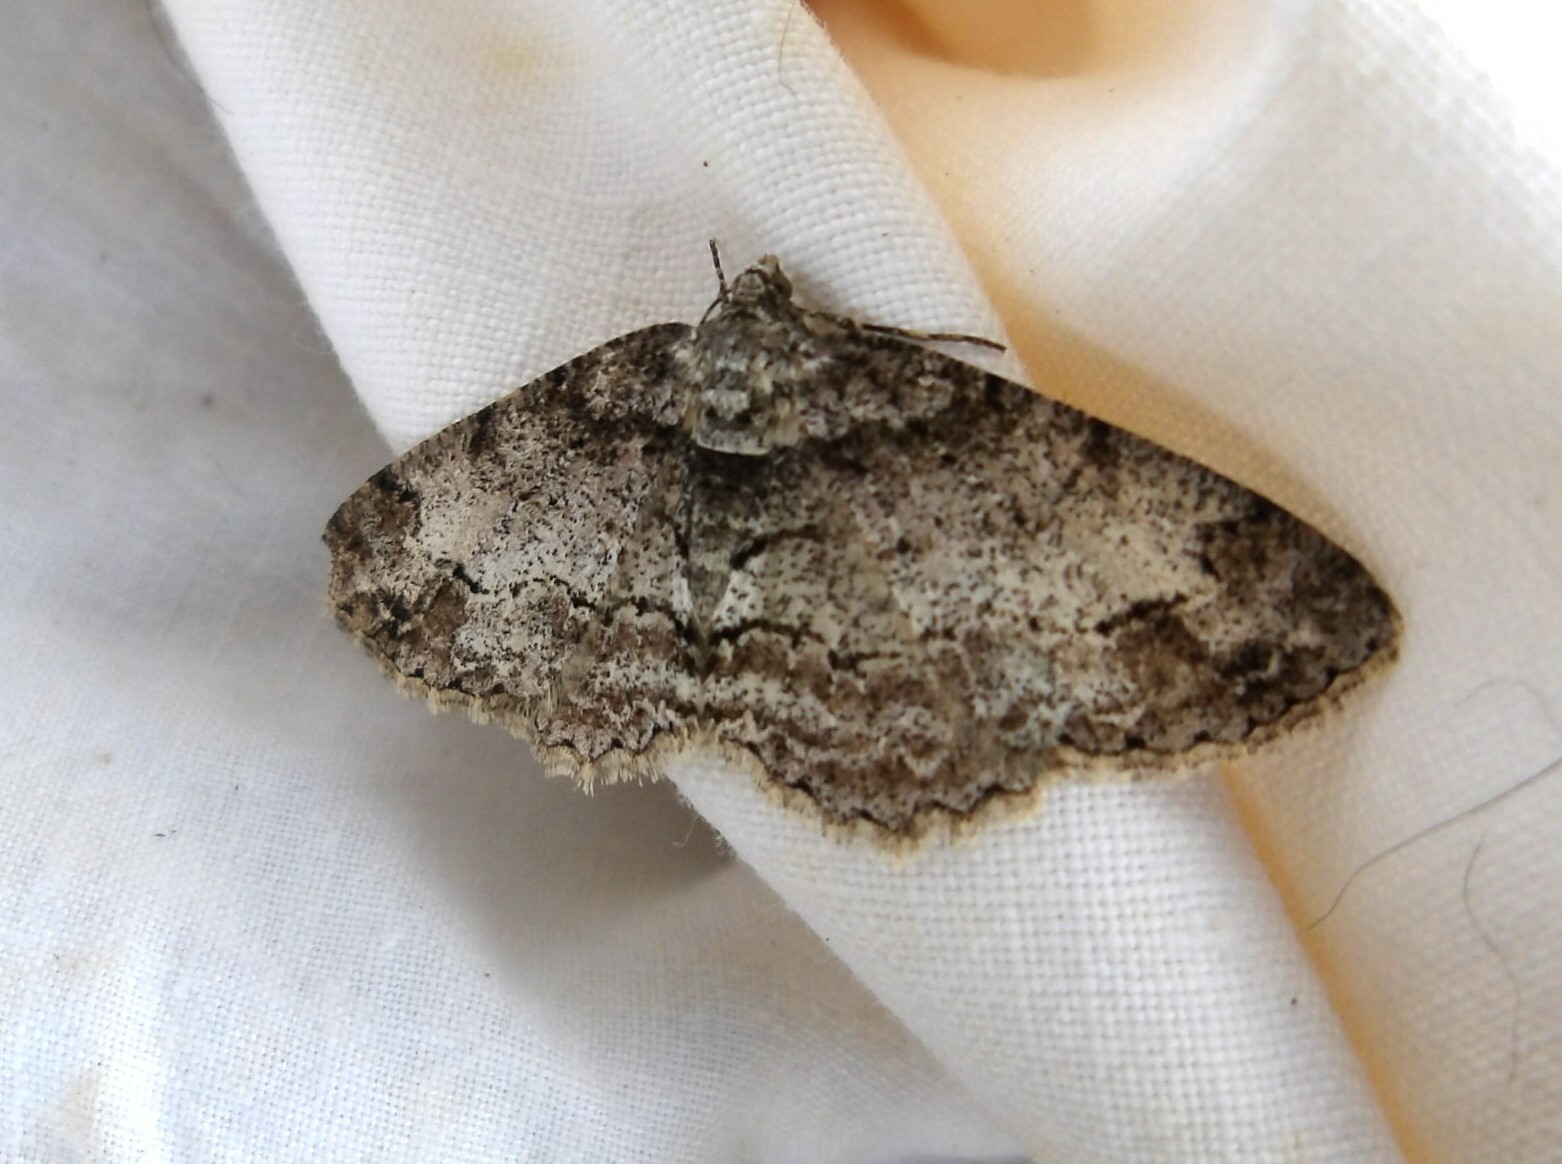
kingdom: Animalia
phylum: Arthropoda
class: Insecta
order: Lepidoptera
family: Geometridae
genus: Paradarisa
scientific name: Paradarisa consonaria
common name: Square spot
